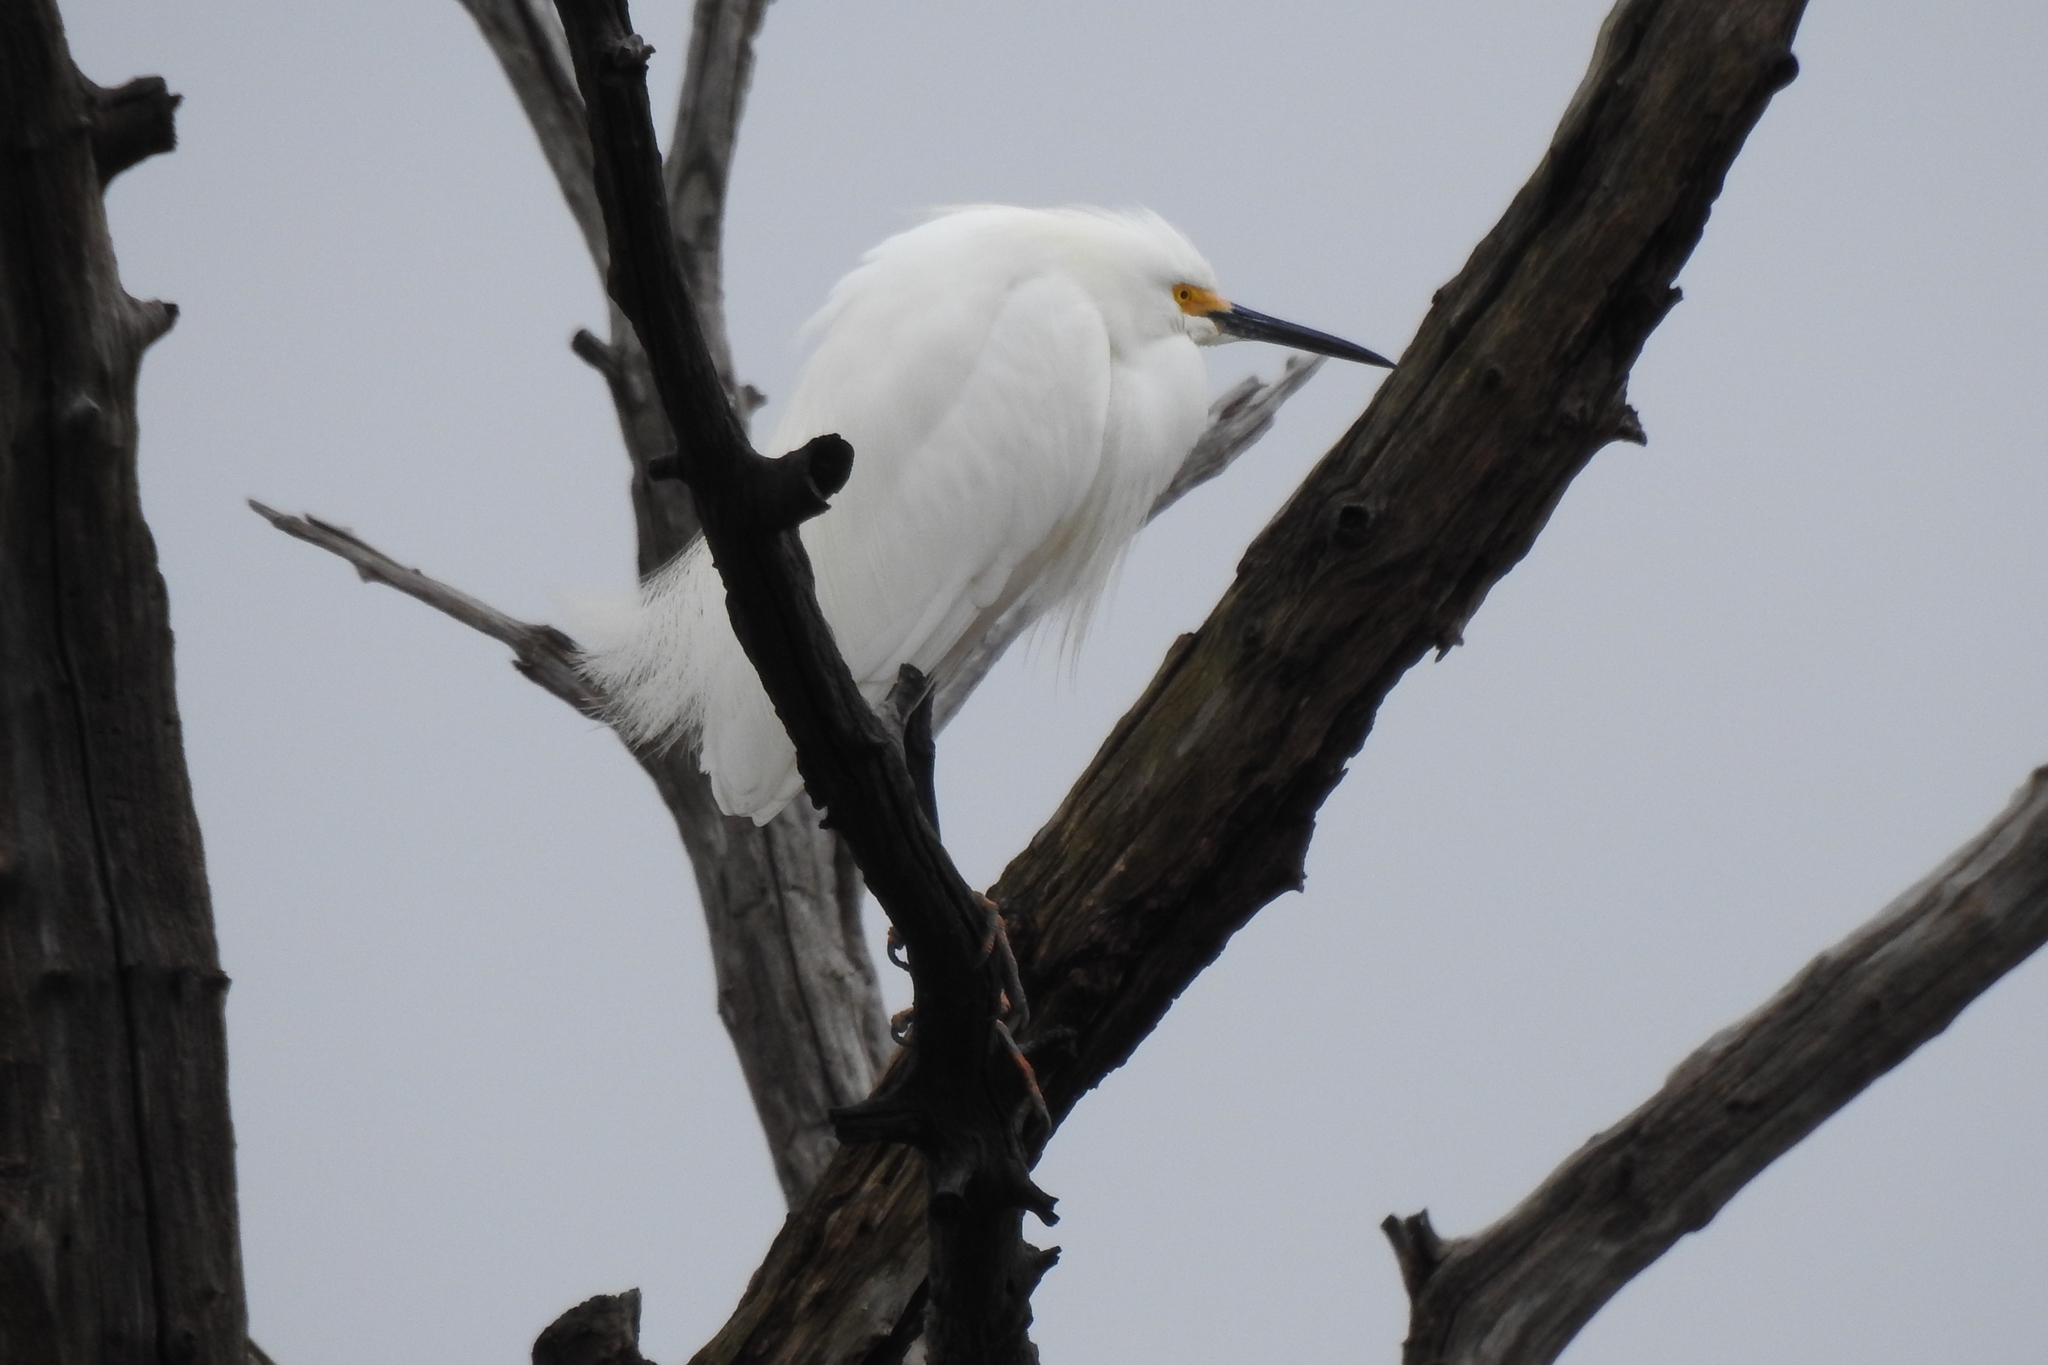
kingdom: Animalia
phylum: Chordata
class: Aves
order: Pelecaniformes
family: Ardeidae
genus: Egretta
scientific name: Egretta thula
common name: Snowy egret
